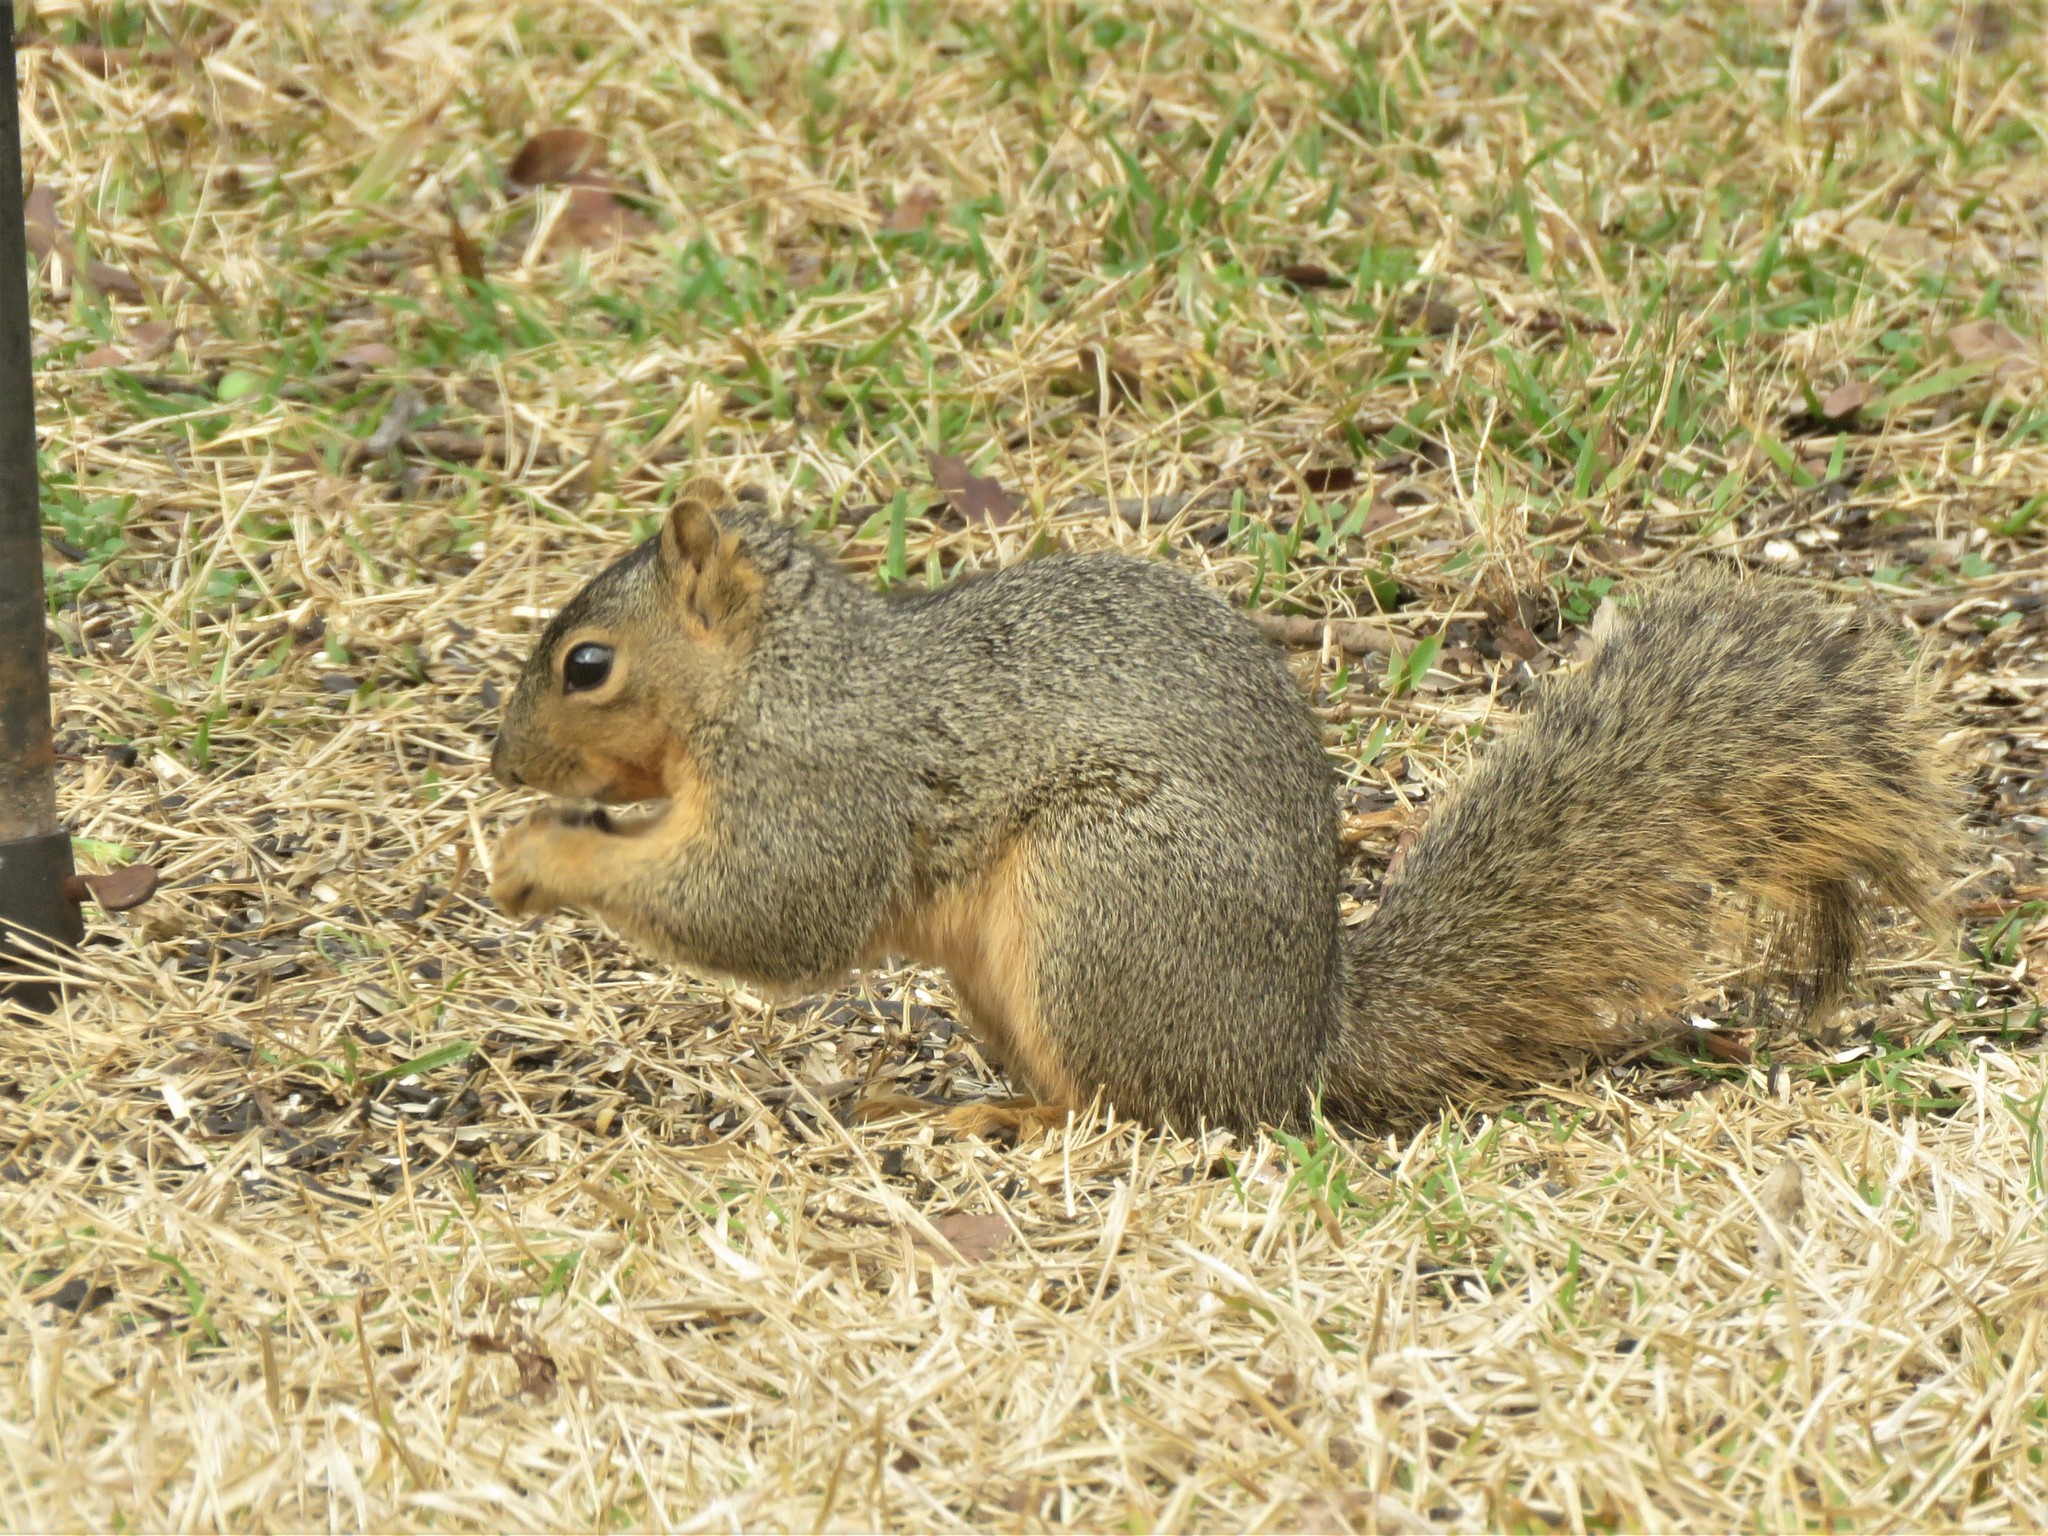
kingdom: Animalia
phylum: Chordata
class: Mammalia
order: Rodentia
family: Sciuridae
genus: Sciurus
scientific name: Sciurus niger
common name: Fox squirrel
